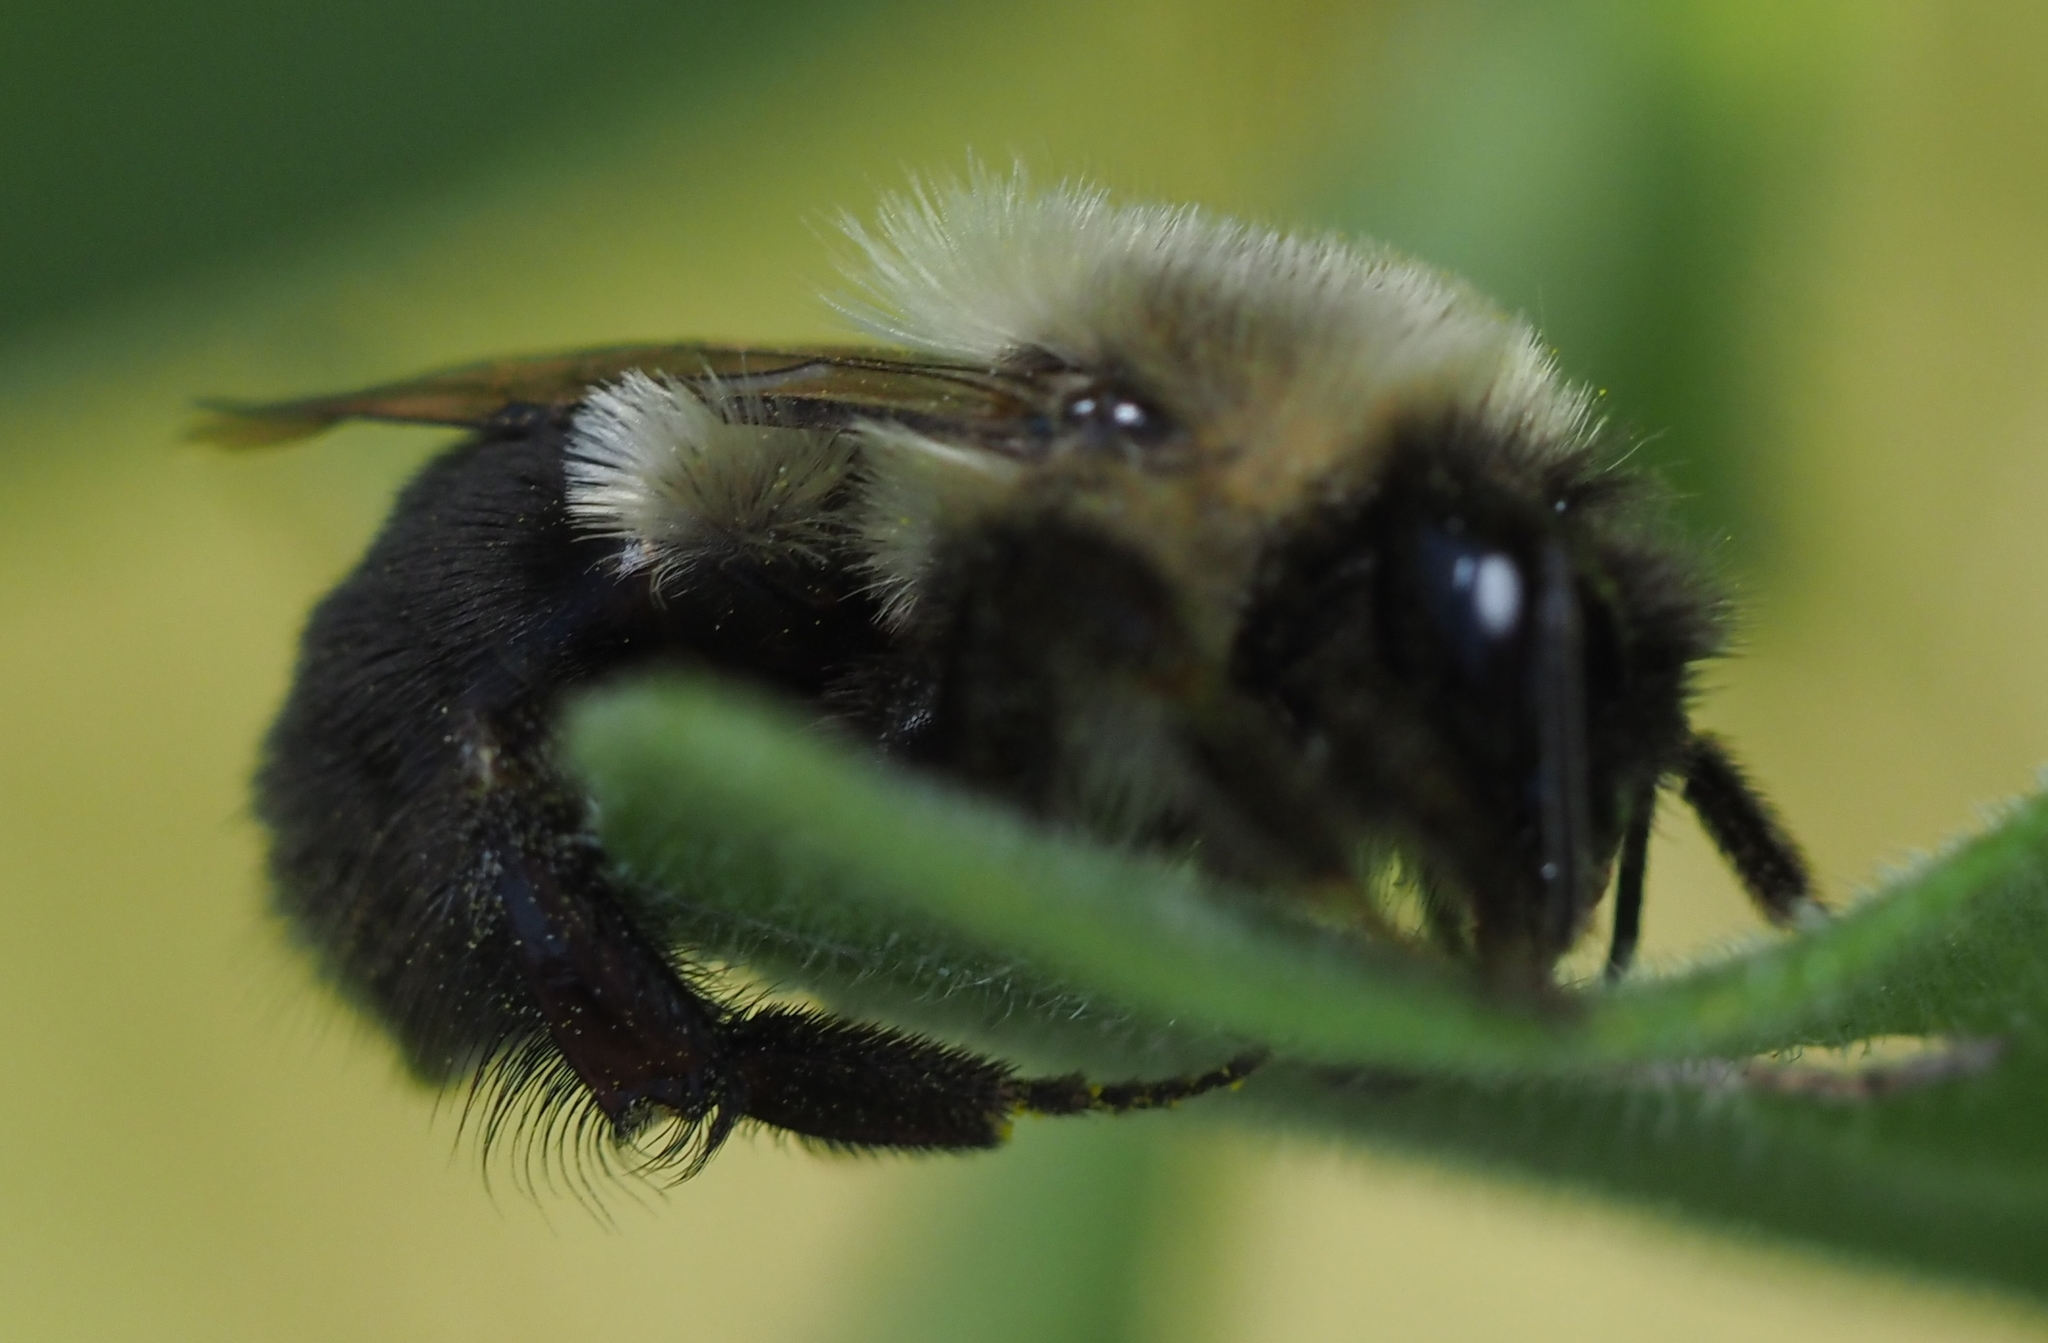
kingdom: Animalia
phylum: Arthropoda
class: Insecta
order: Hymenoptera
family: Apidae
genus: Bombus
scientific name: Bombus impatiens
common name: Common eastern bumble bee
